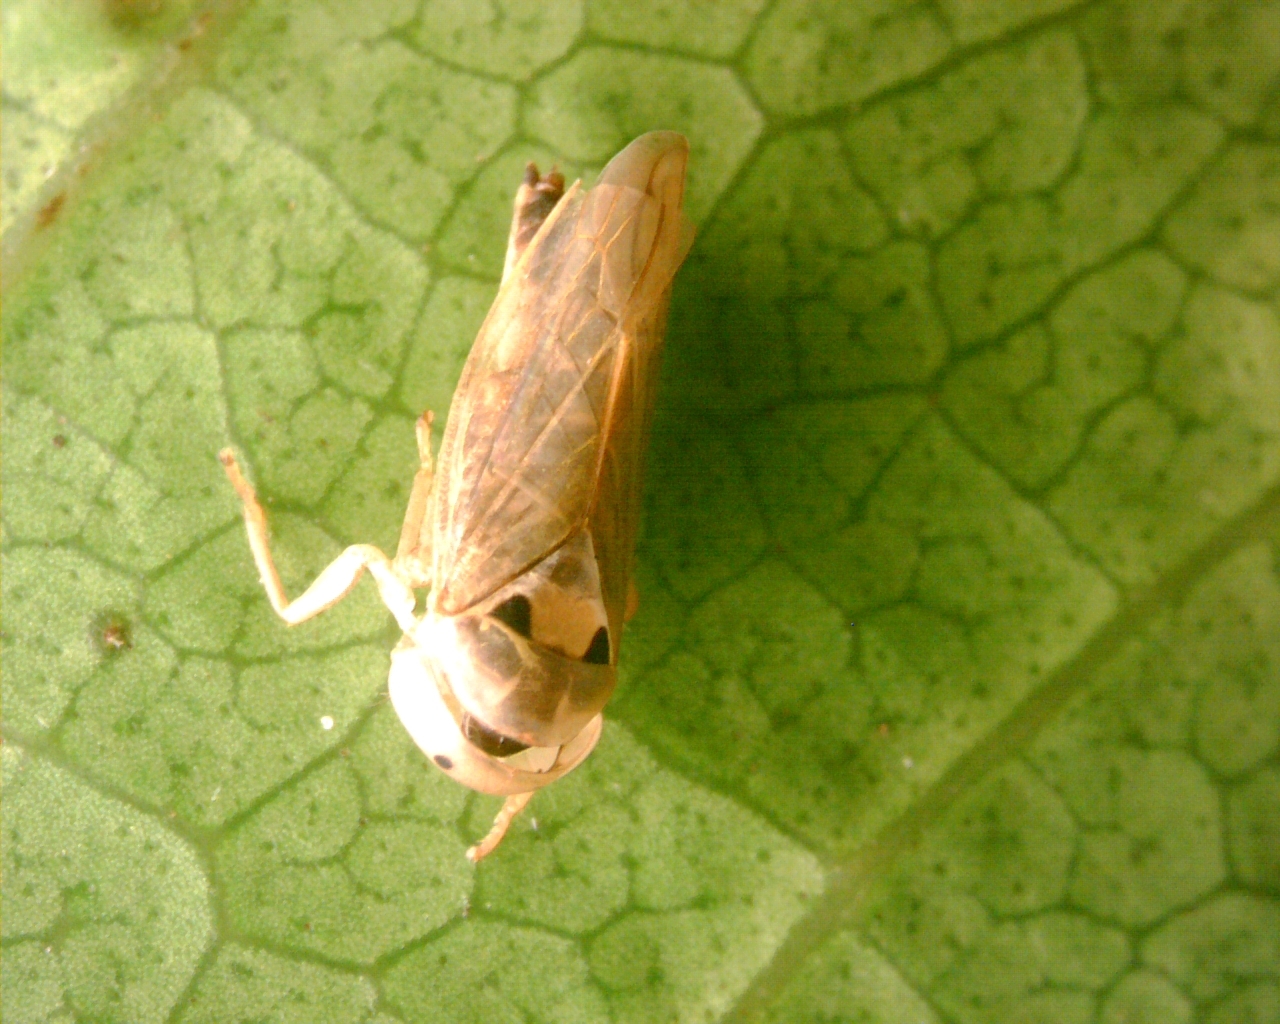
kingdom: Animalia
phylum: Arthropoda
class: Insecta
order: Hemiptera
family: Cicadellidae
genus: Idioscopus
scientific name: Idioscopus clypealis
